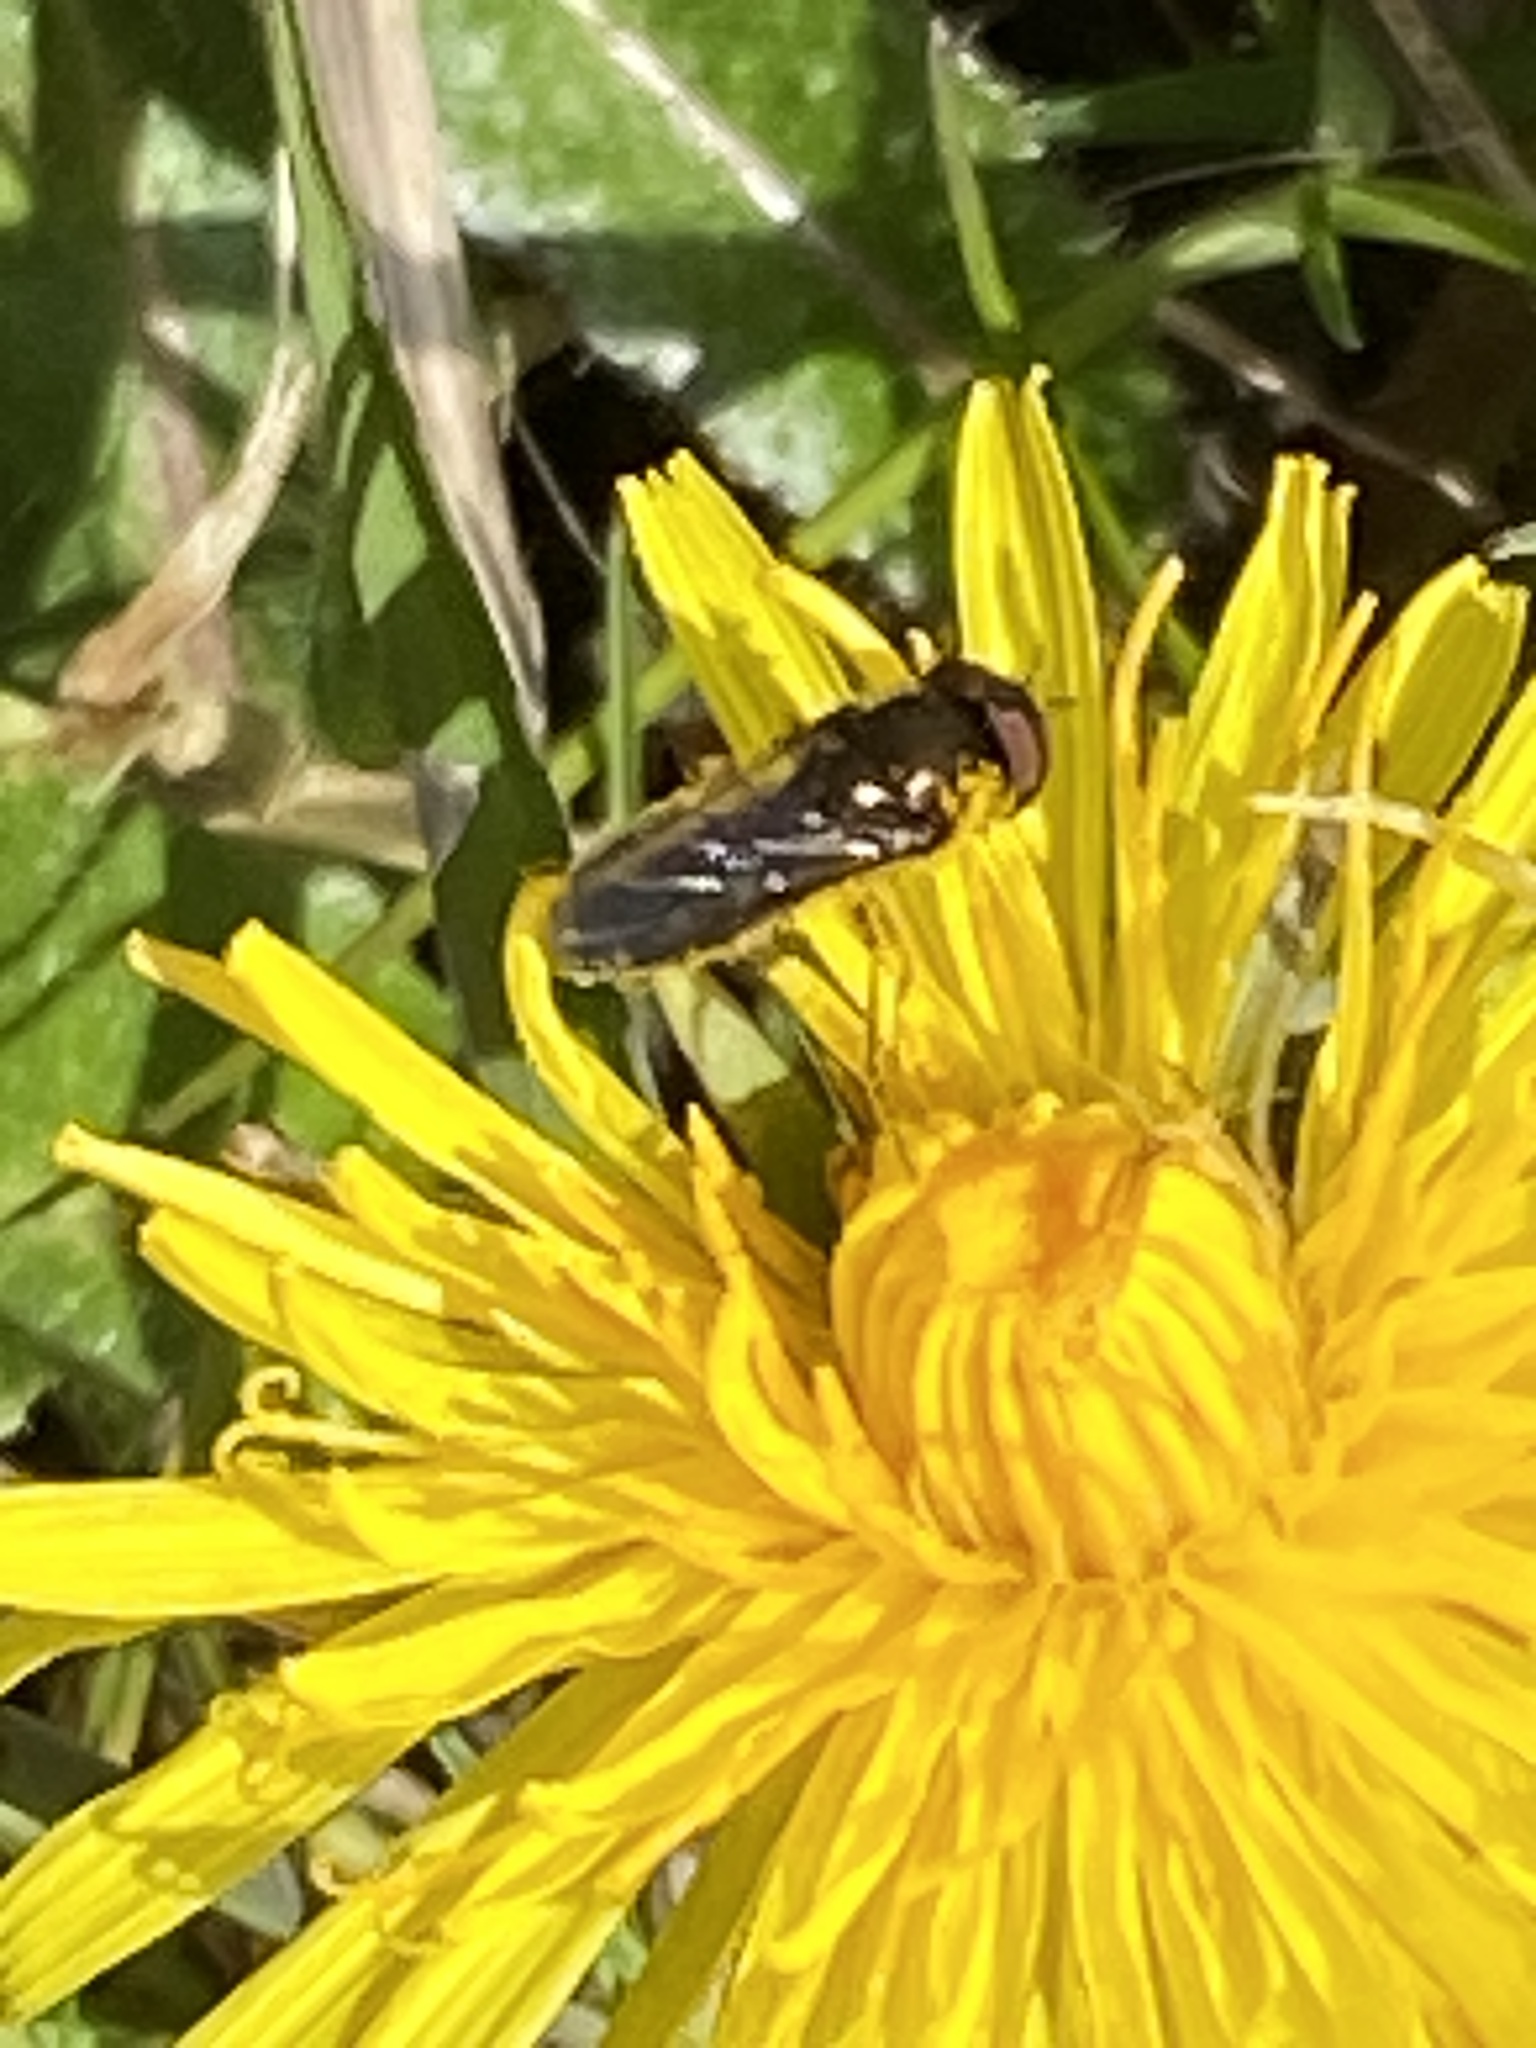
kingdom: Animalia
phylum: Arthropoda
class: Insecta
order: Diptera
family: Syrphidae
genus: Platycheirus
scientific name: Platycheirus
